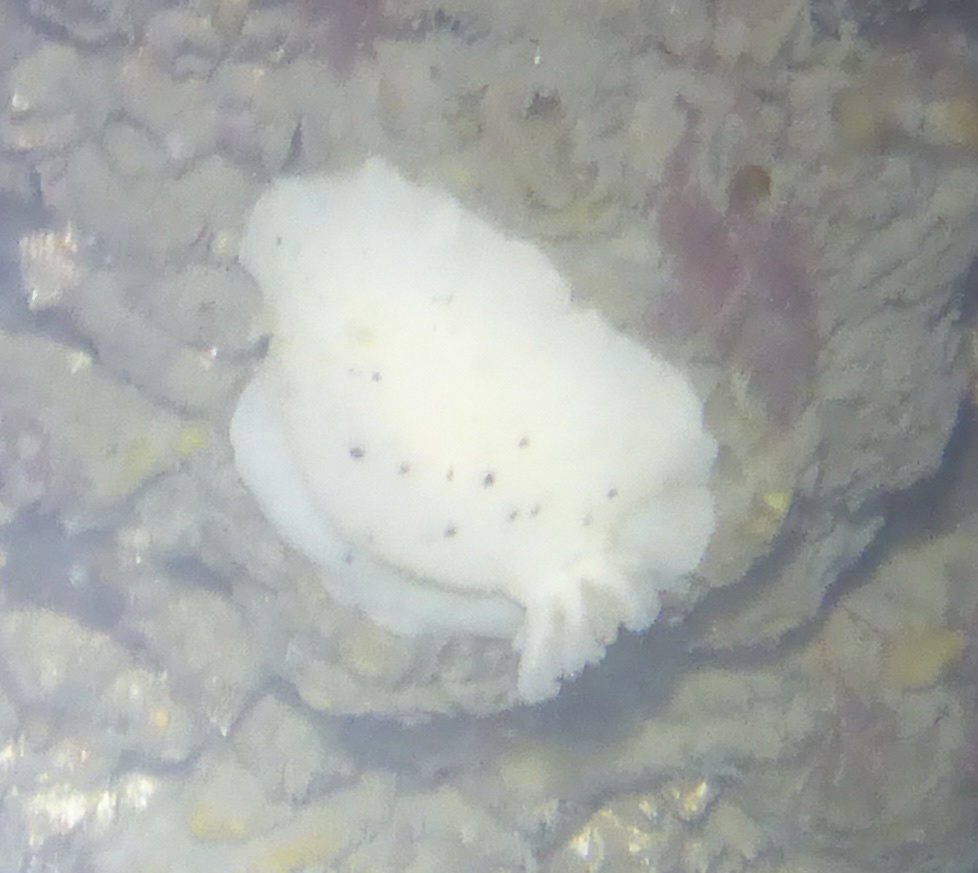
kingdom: Animalia
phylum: Mollusca
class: Gastropoda
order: Nudibranchia
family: Discodorididae
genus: Geitodoris
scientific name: Geitodoris heathi
